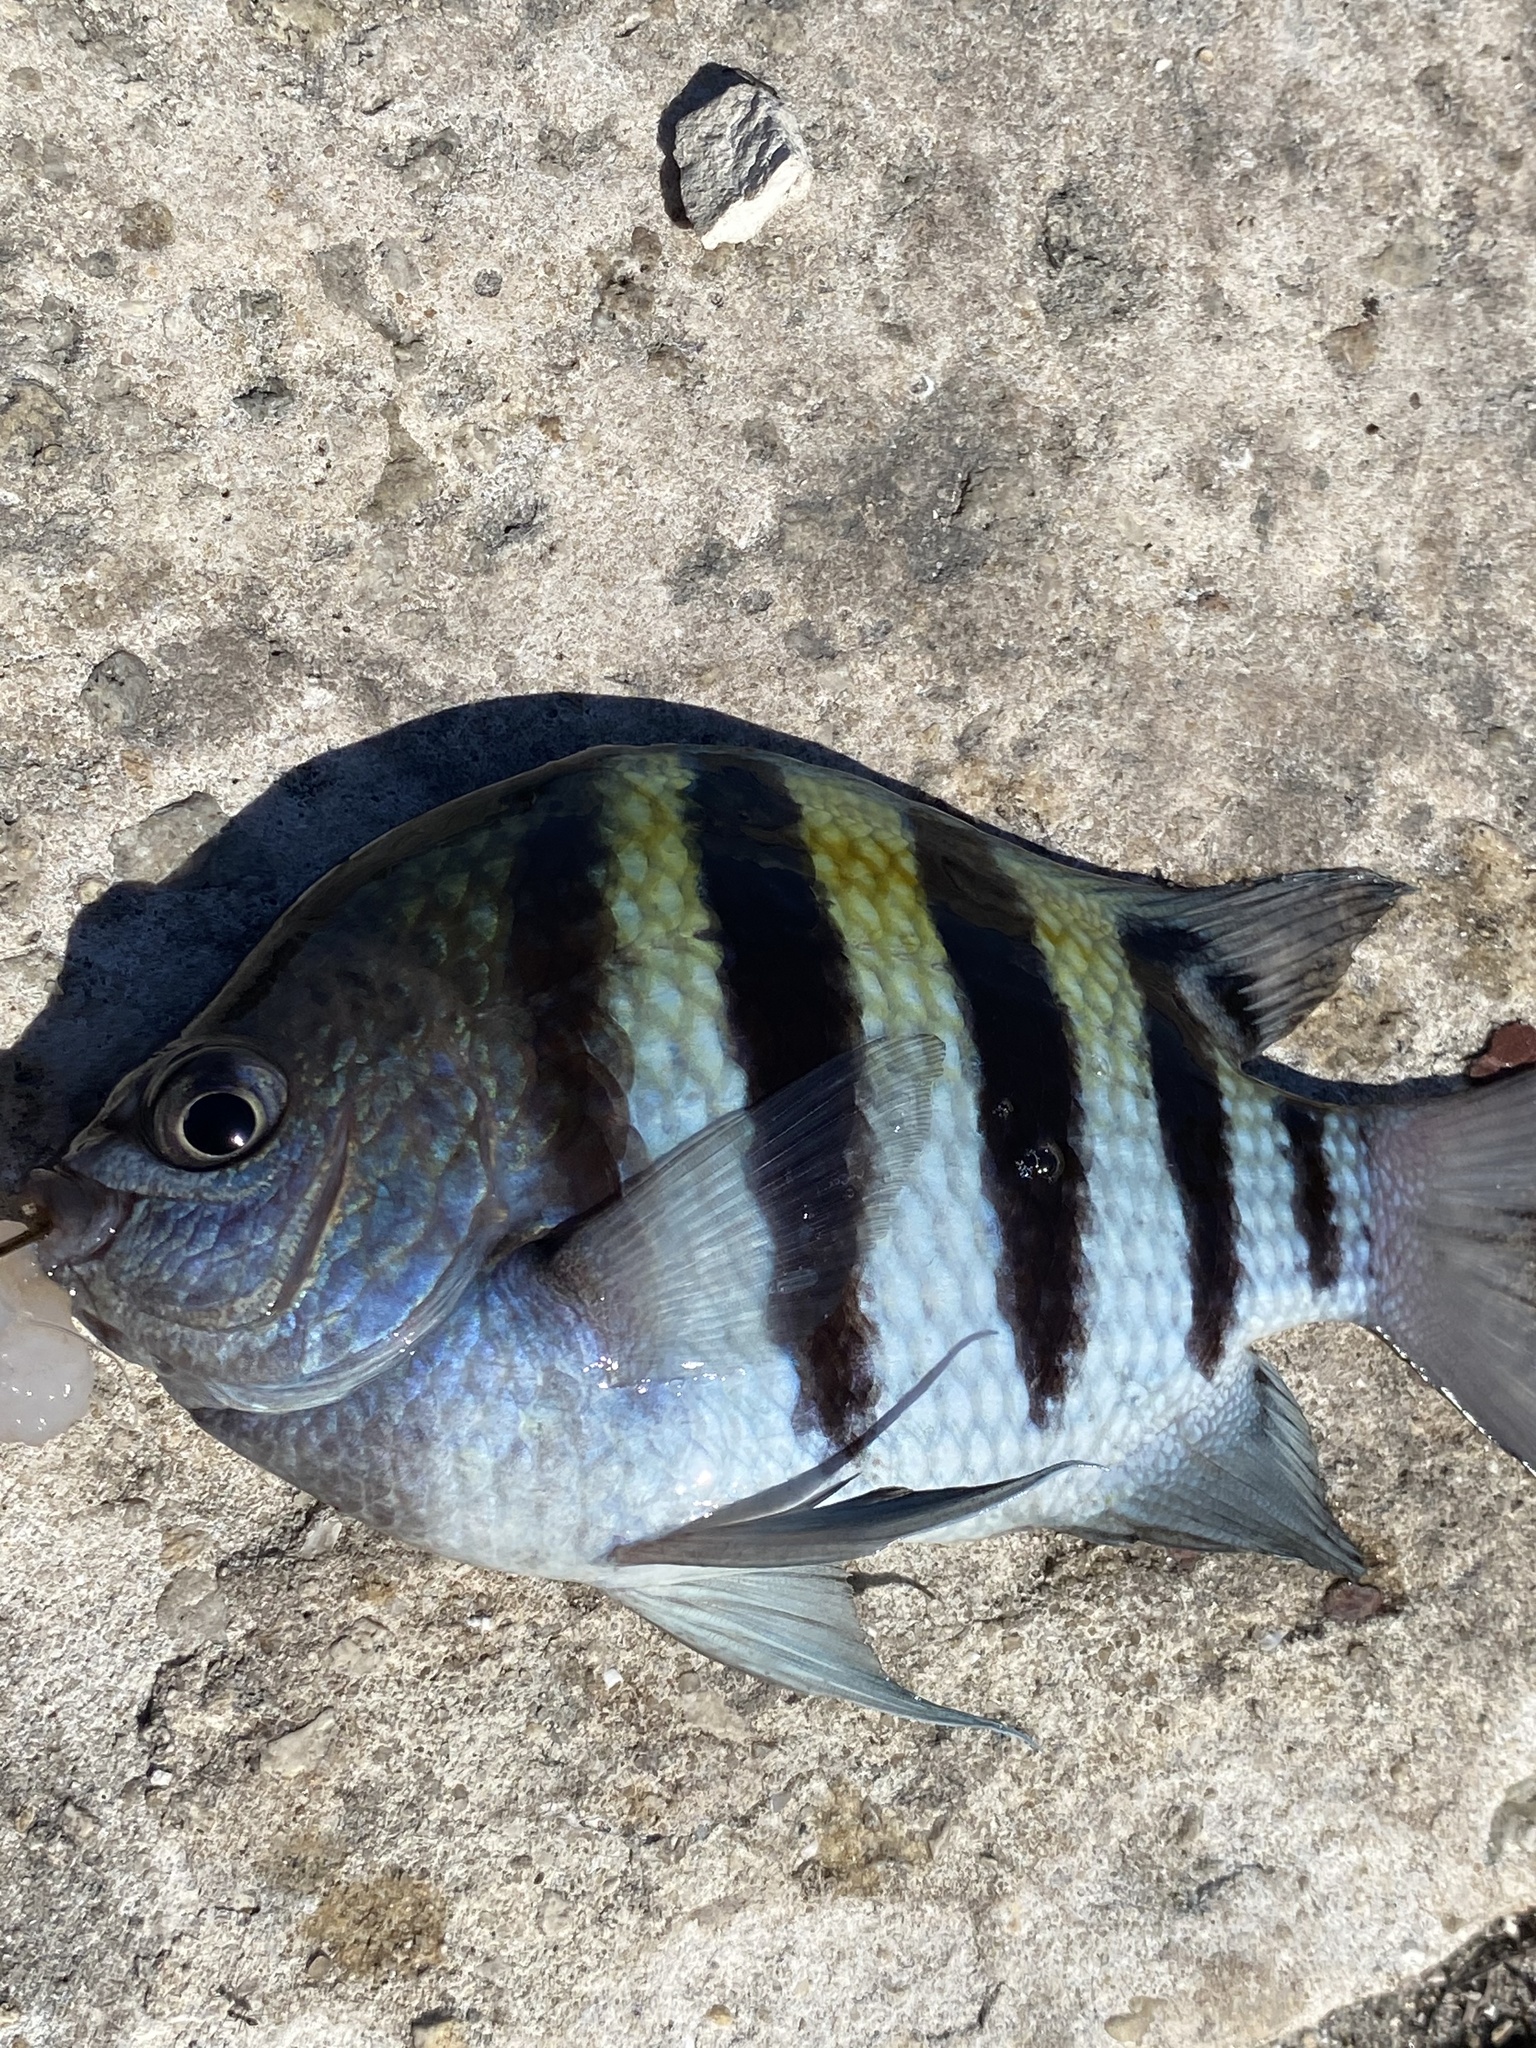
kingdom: Animalia
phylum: Chordata
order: Perciformes
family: Pomacentridae
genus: Abudefduf
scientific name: Abudefduf saxatilis
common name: Sergeant major
